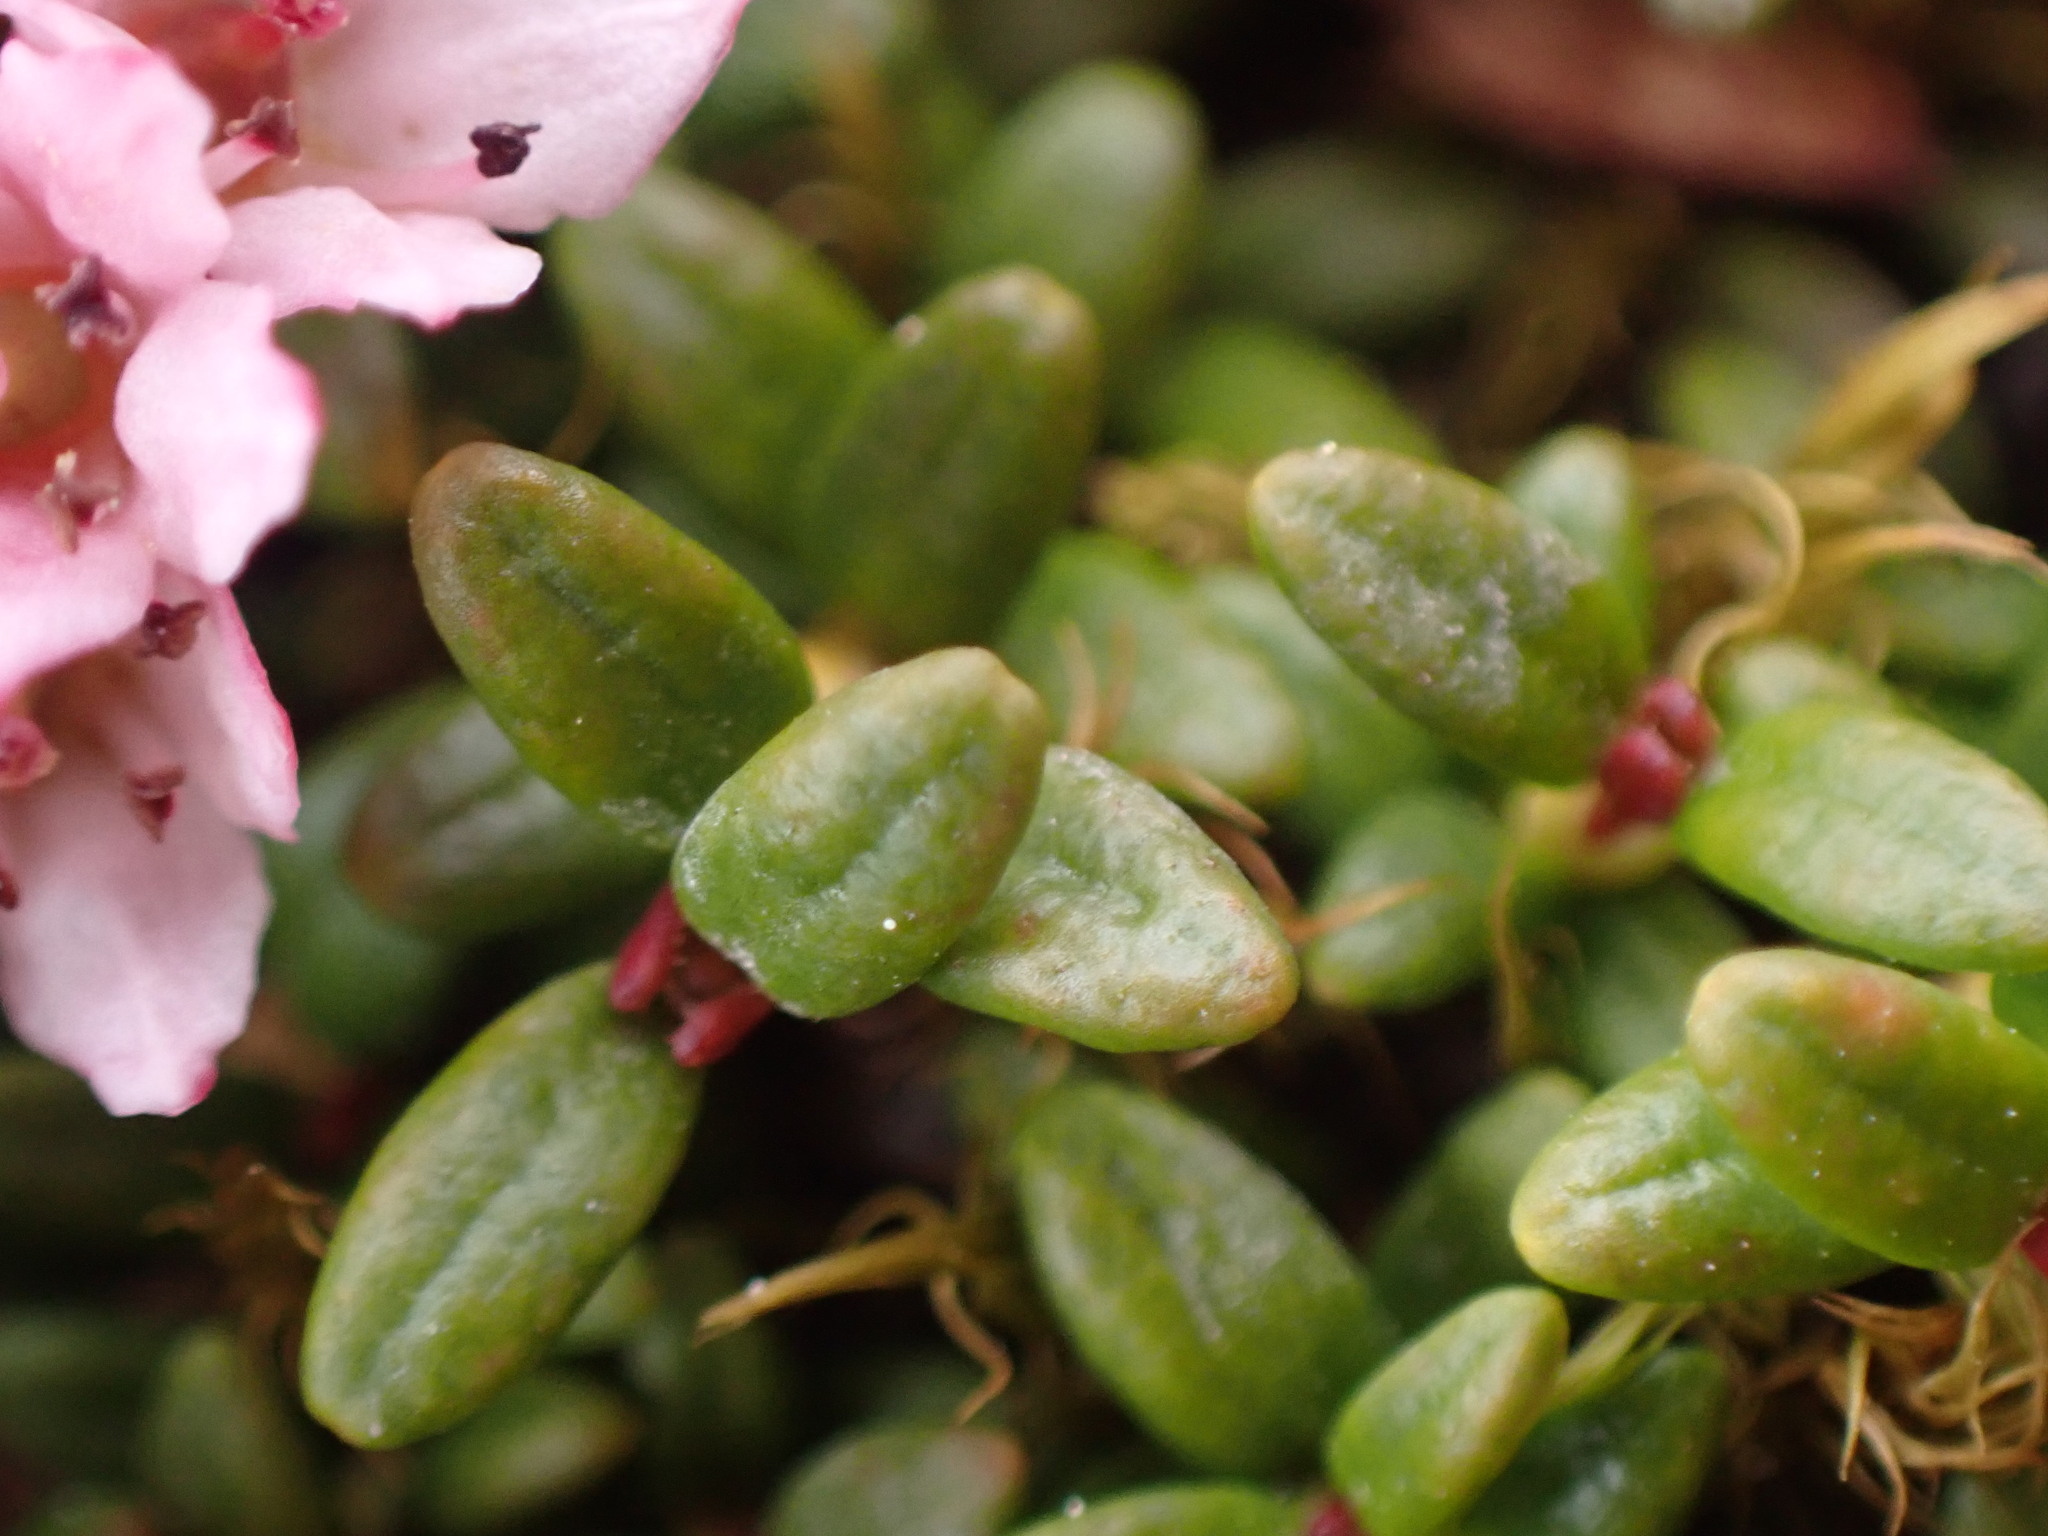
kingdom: Plantae
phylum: Tracheophyta
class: Magnoliopsida
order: Ericales
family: Ericaceae
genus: Kalmia
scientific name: Kalmia procumbens
